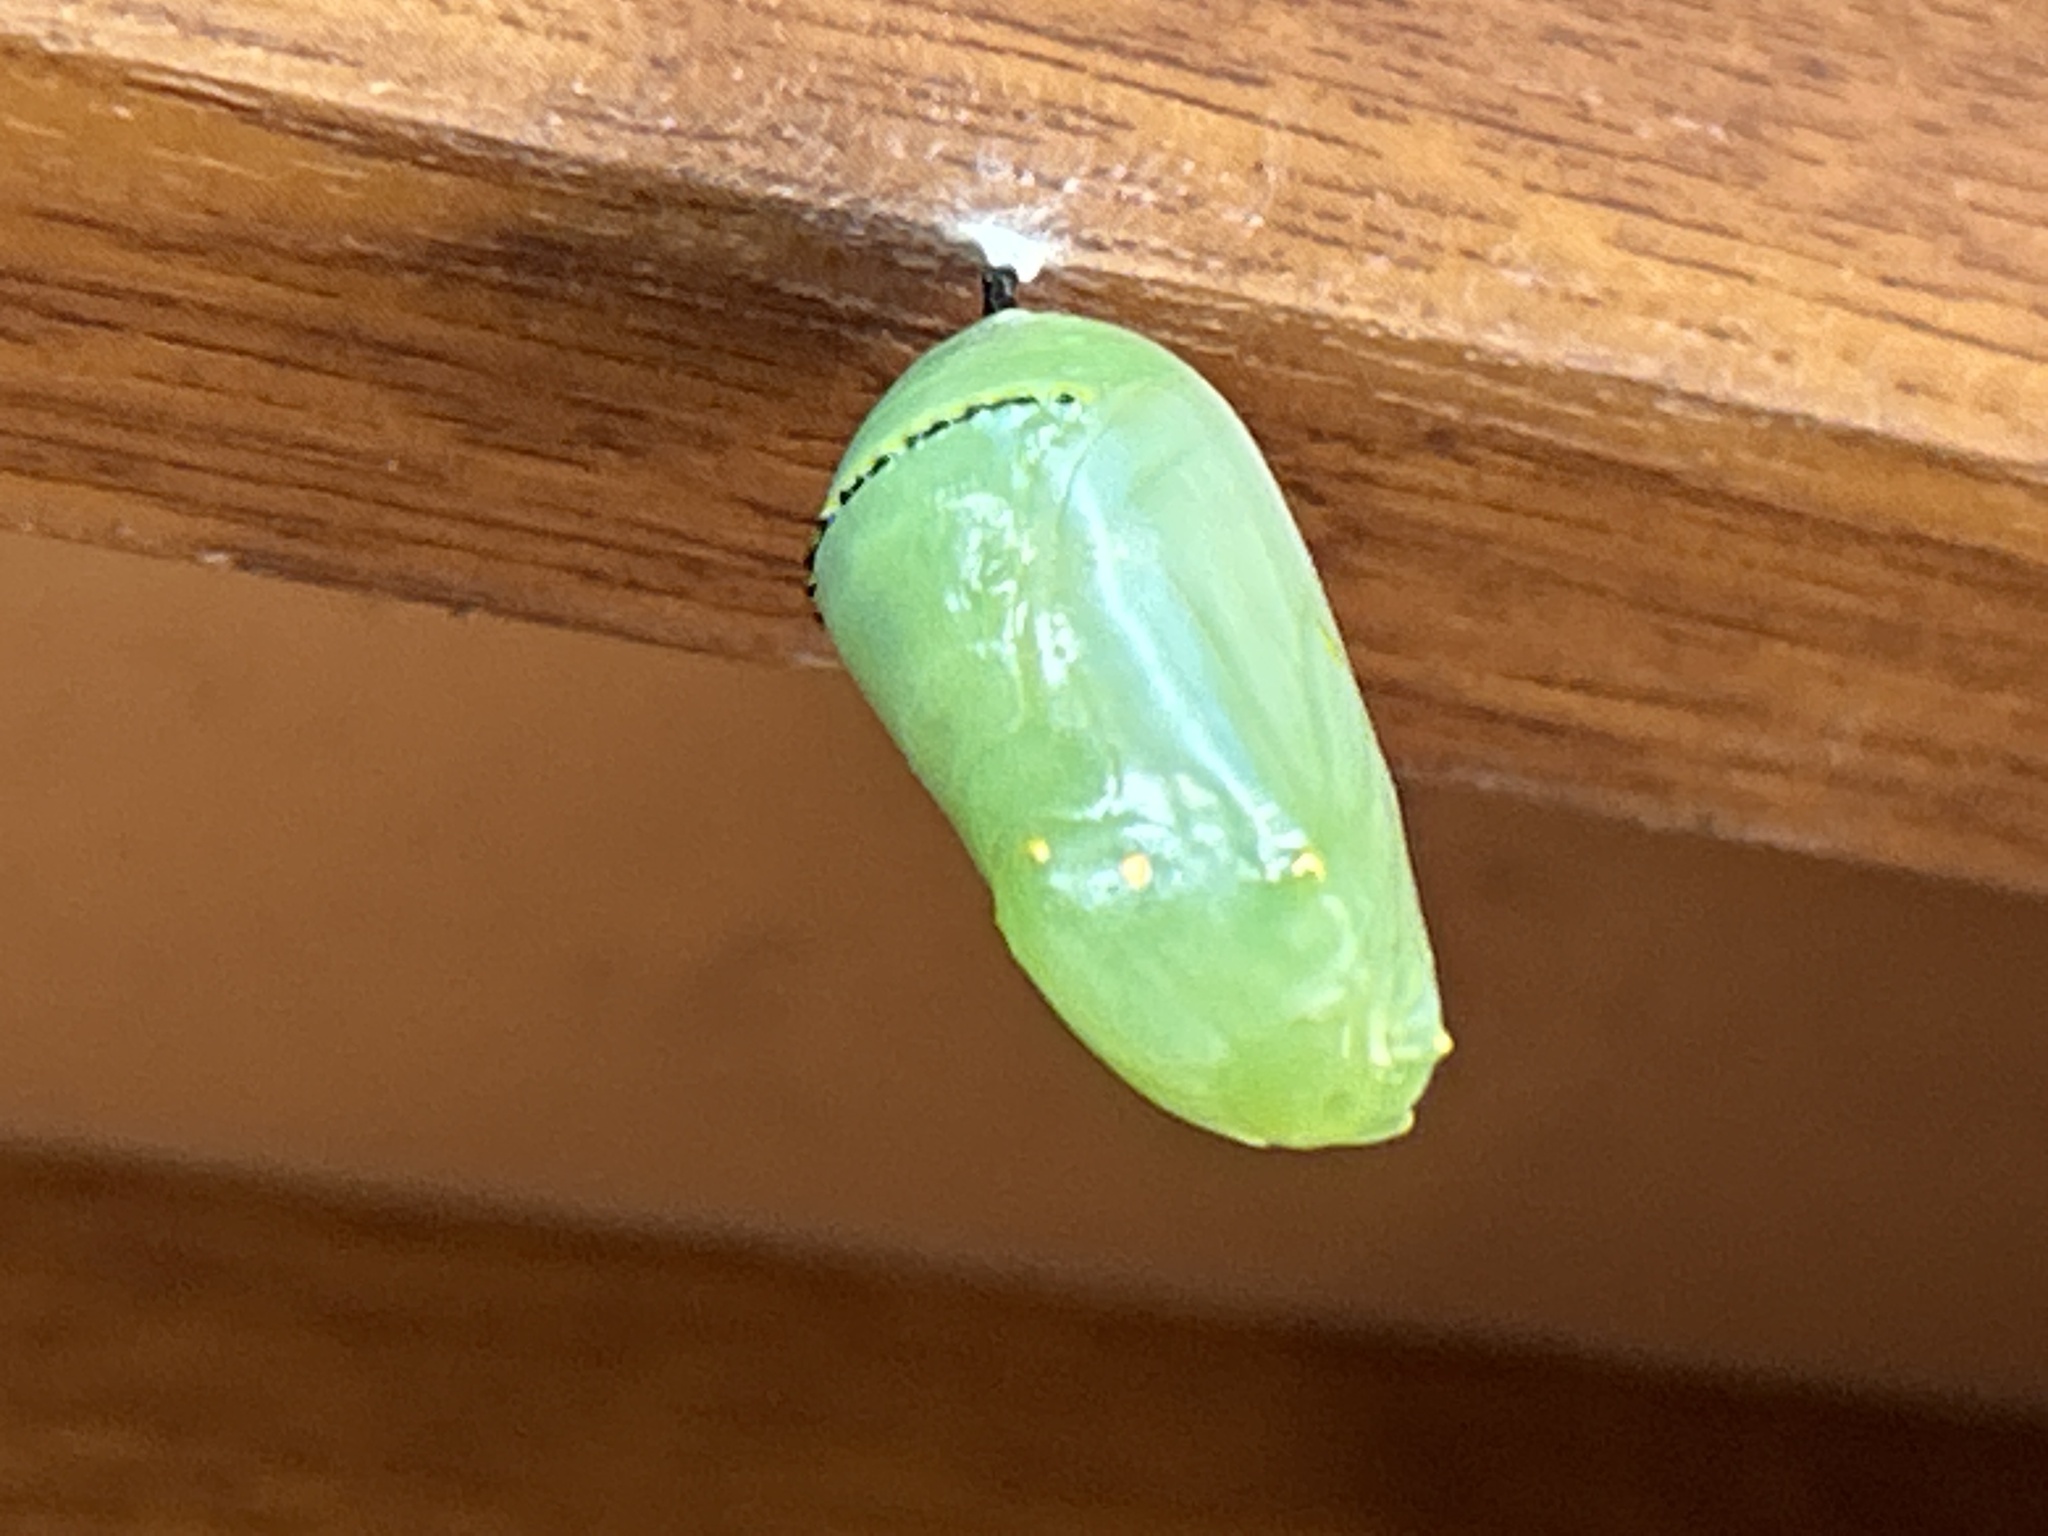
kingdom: Animalia
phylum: Arthropoda
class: Insecta
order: Lepidoptera
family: Nymphalidae
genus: Danaus
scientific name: Danaus plexippus
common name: Monarch
